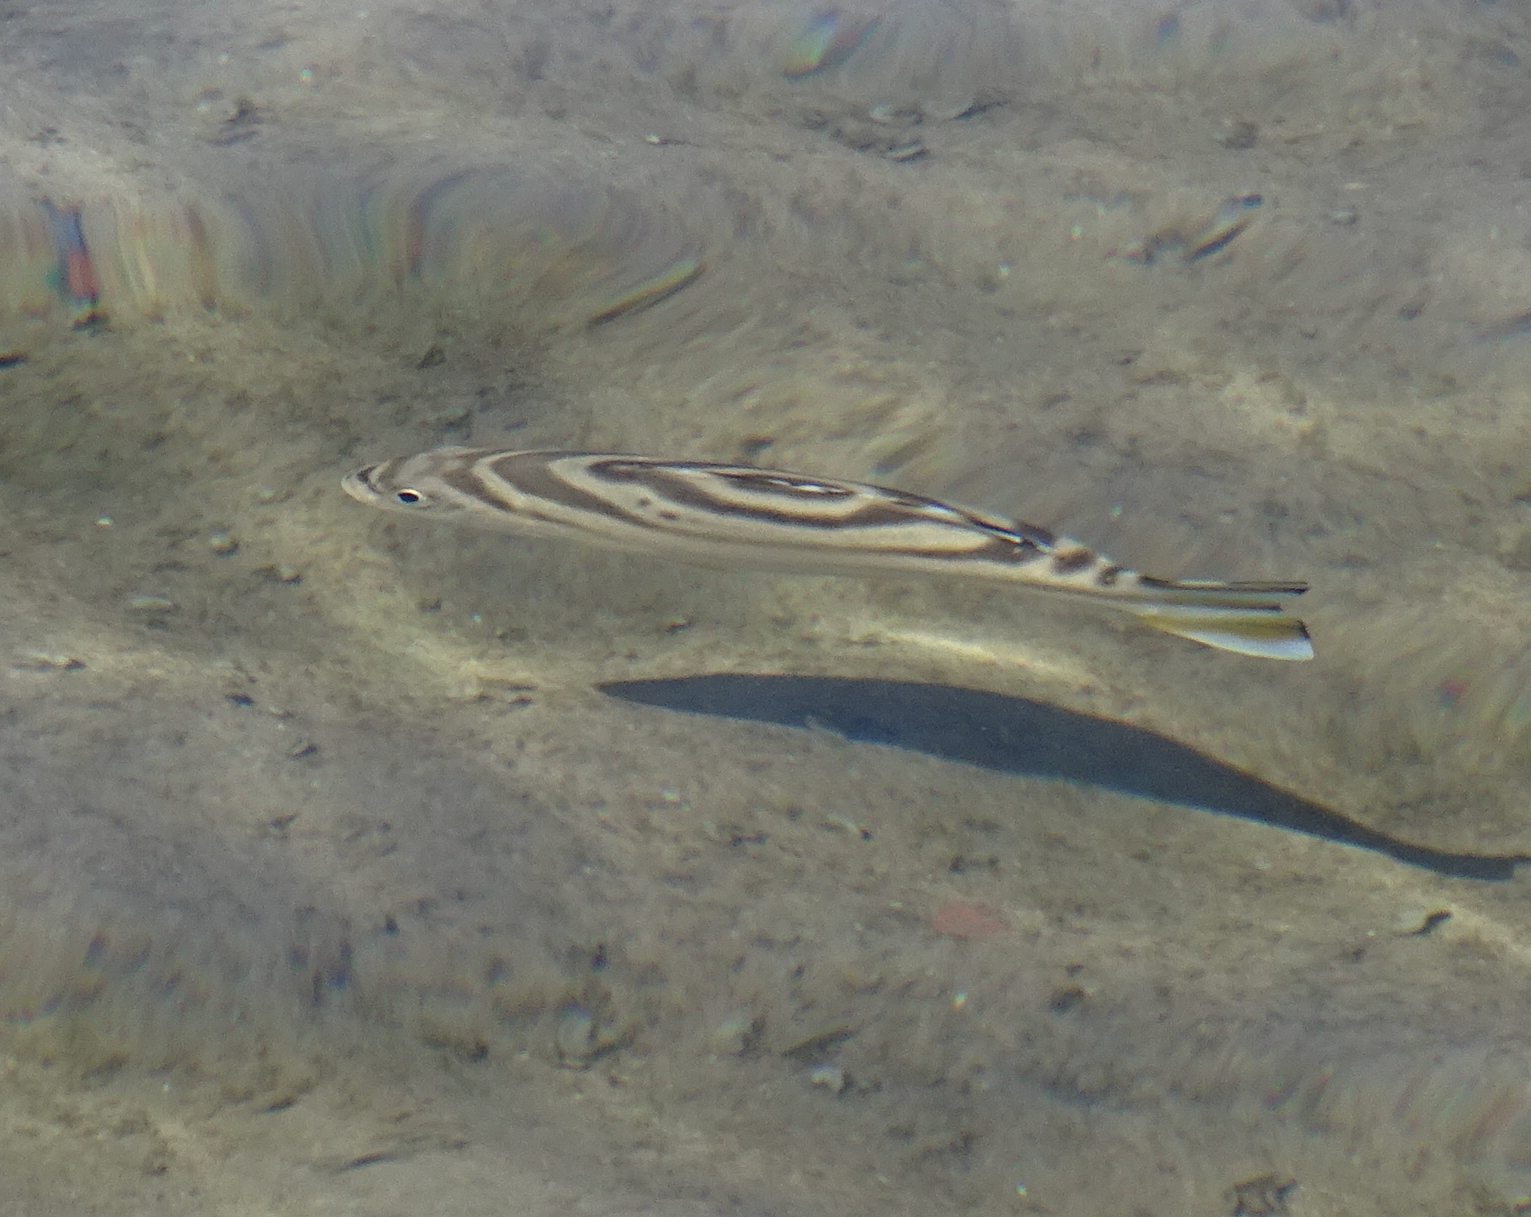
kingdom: Animalia
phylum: Chordata
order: Perciformes
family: Terapontidae
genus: Terapon
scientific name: Terapon jarbua
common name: Jarbua terapon
